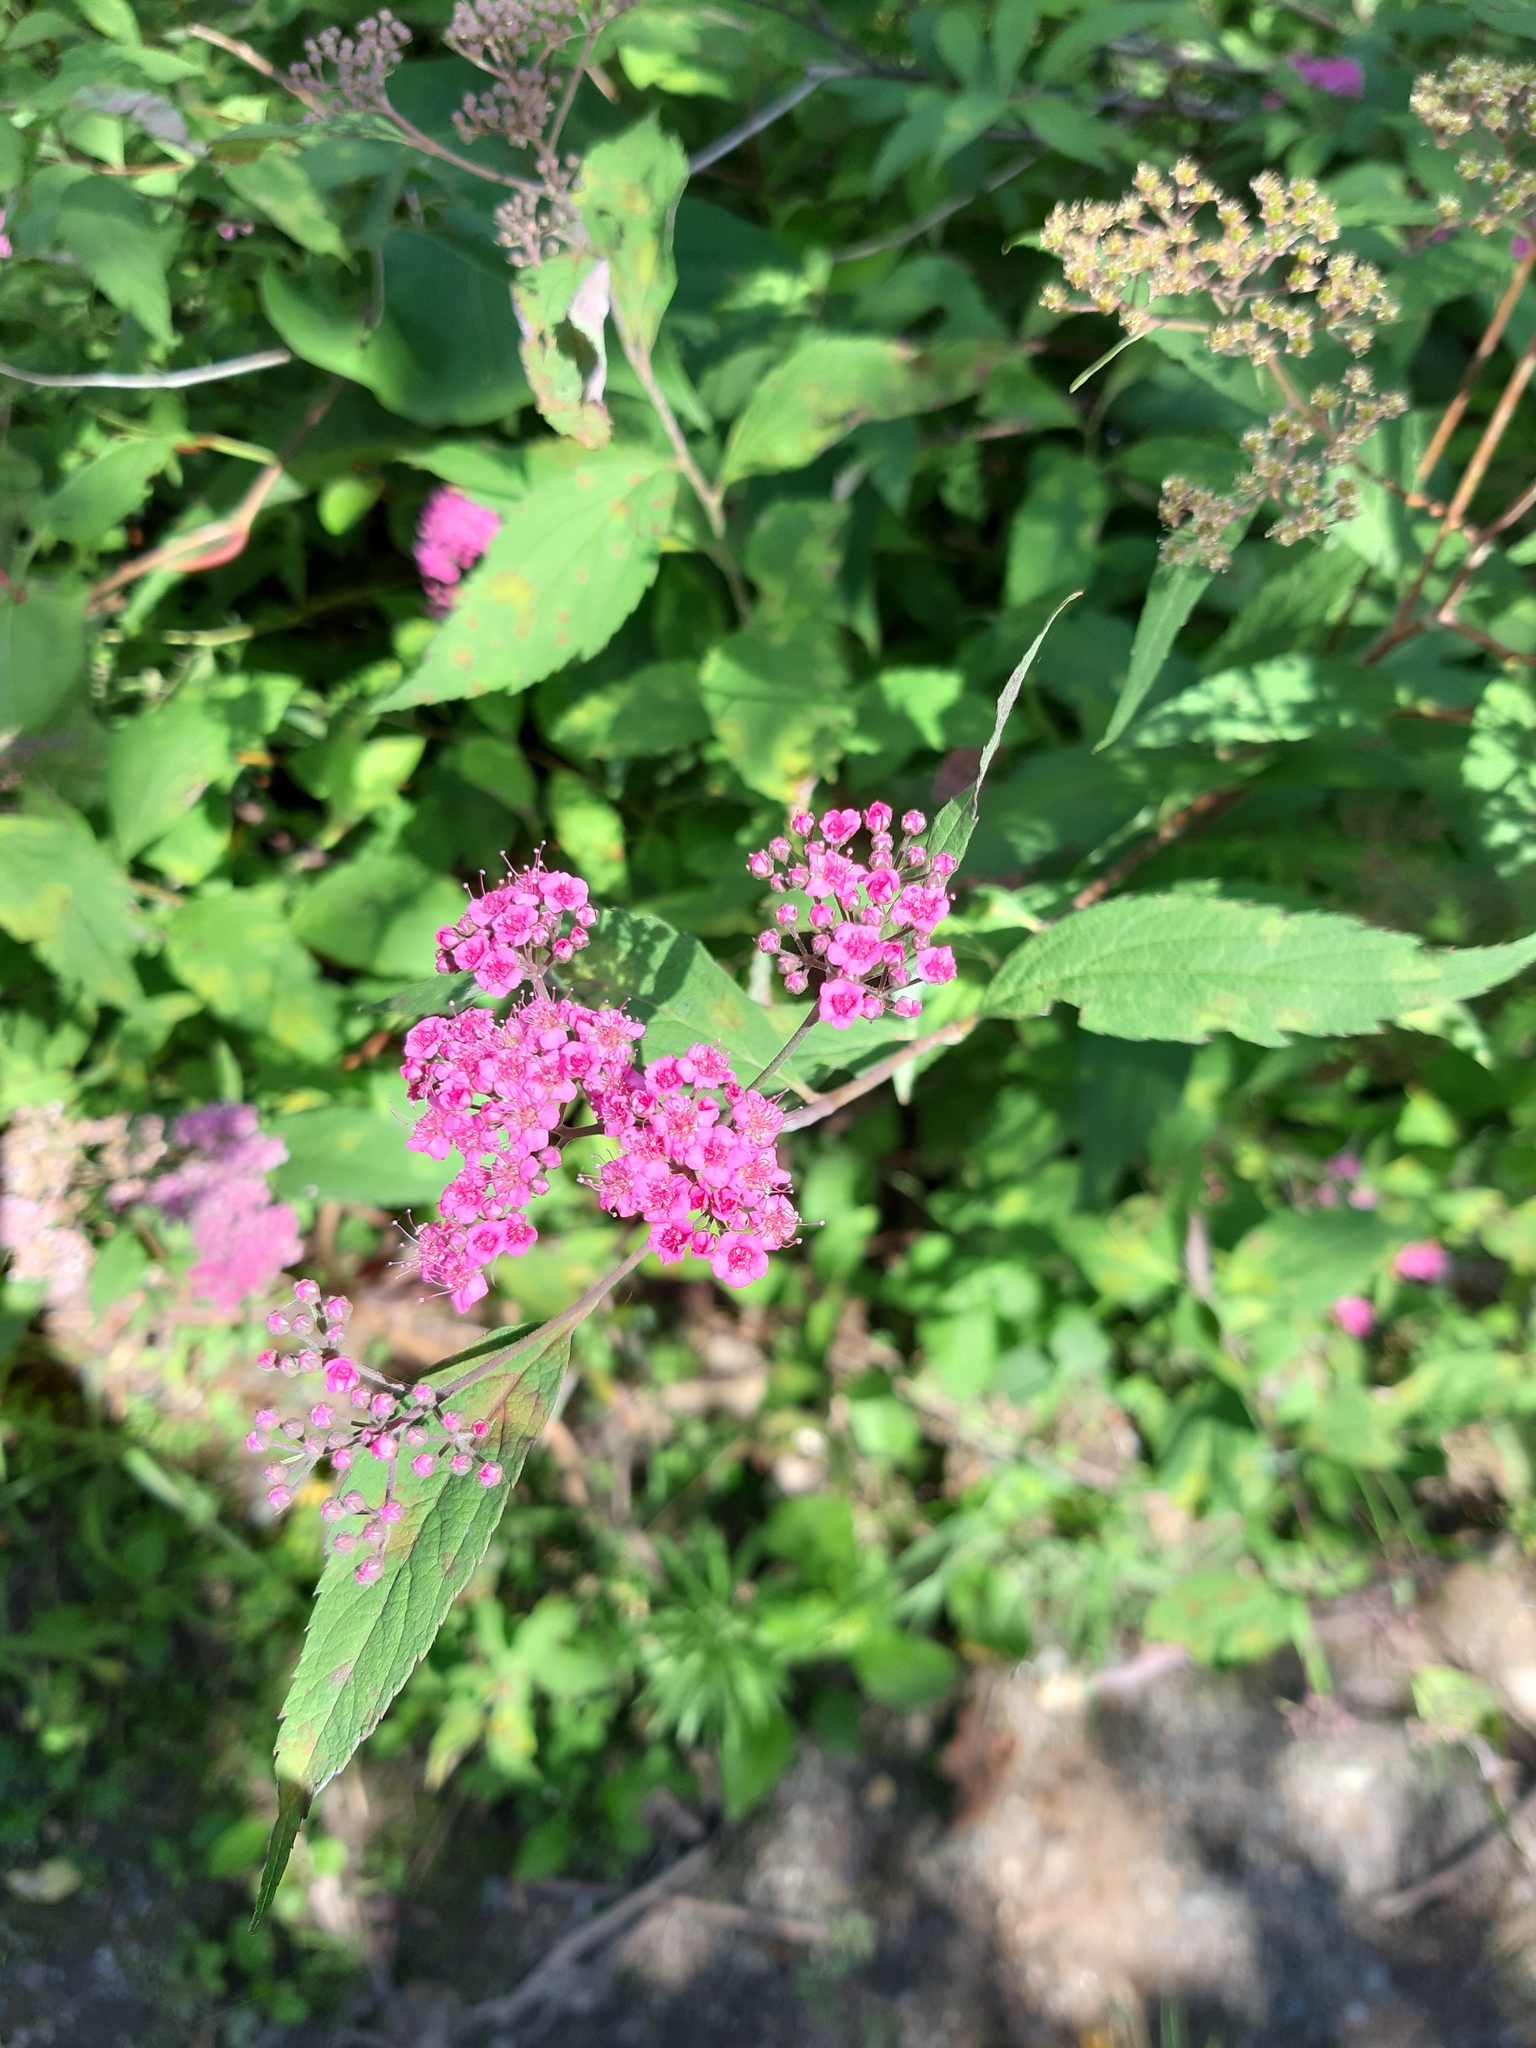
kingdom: Plantae
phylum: Tracheophyta
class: Magnoliopsida
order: Rosales
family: Rosaceae
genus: Spiraea
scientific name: Spiraea japonica
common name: Japanese spiraea
